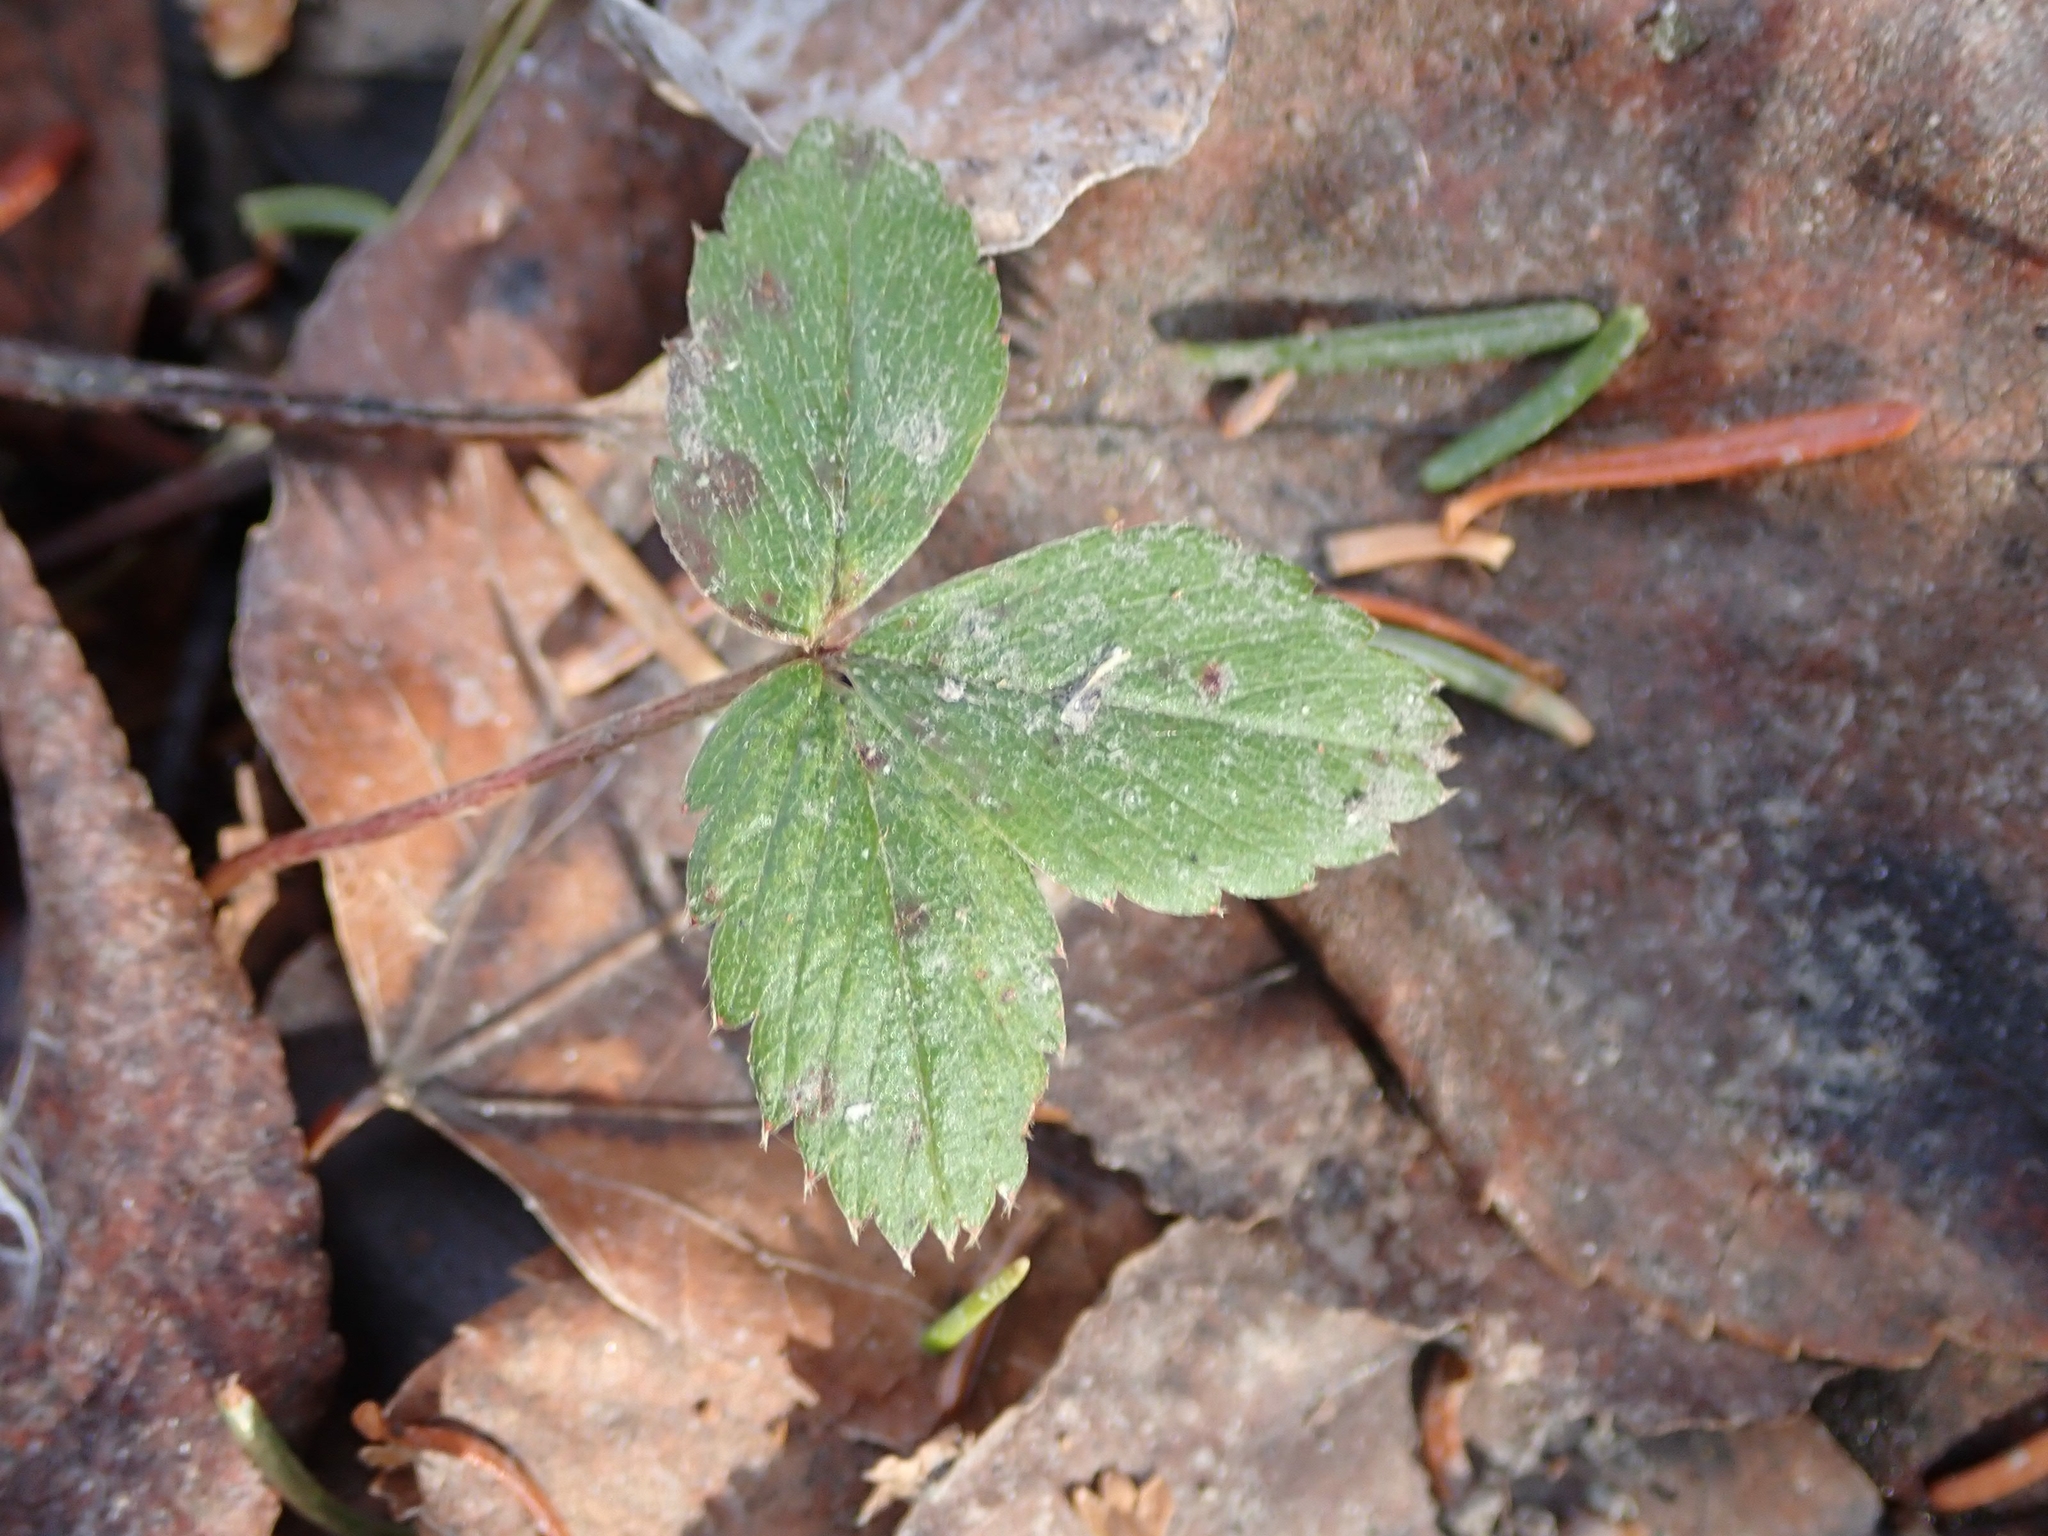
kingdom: Plantae
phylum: Tracheophyta
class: Magnoliopsida
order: Rosales
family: Rosaceae
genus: Fragaria
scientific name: Fragaria virginiana
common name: Thickleaved wild strawberry
